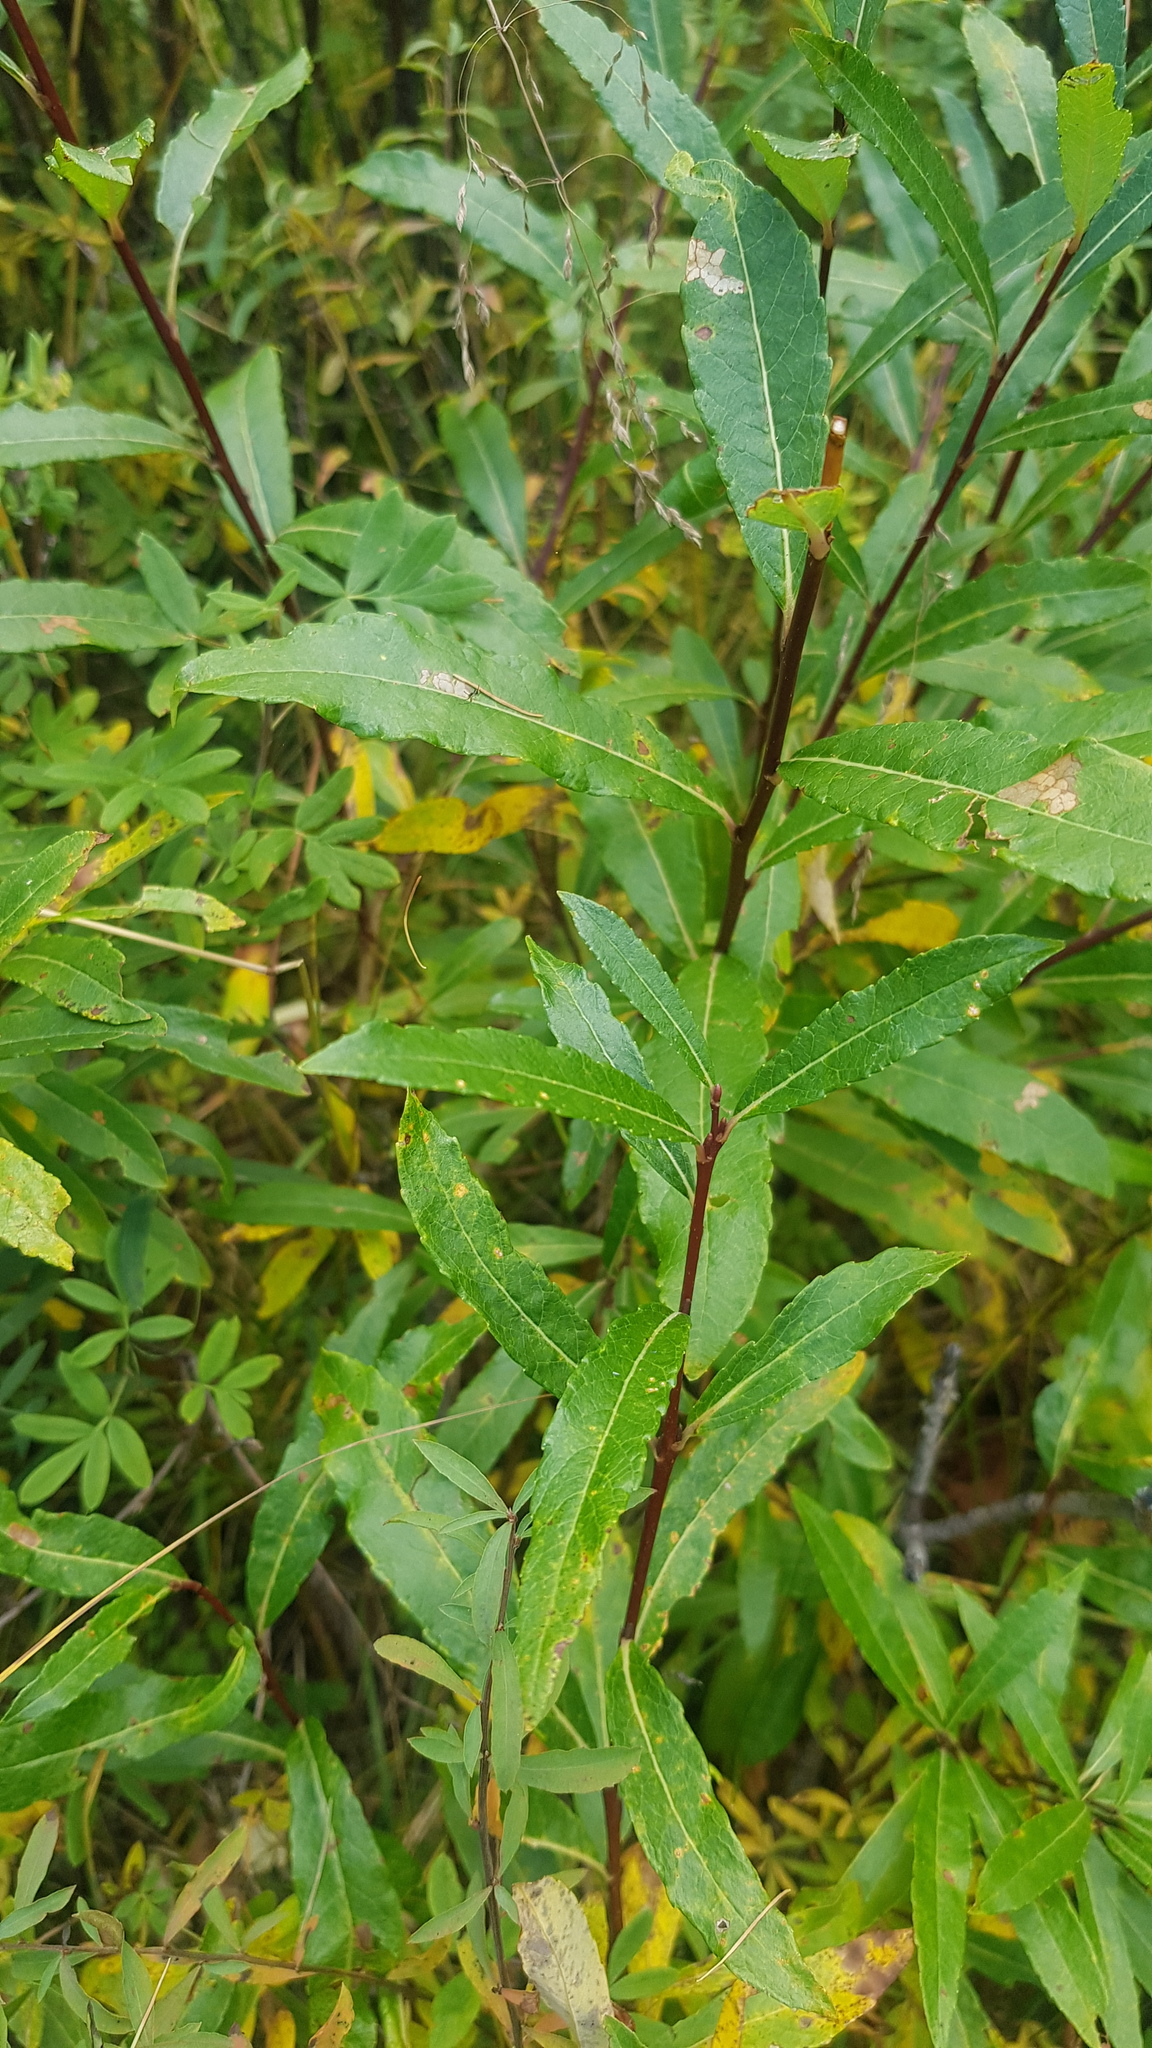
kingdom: Plantae
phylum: Tracheophyta
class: Magnoliopsida
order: Malpighiales
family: Salicaceae
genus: Salix
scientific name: Salix triandra
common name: Almond willow
